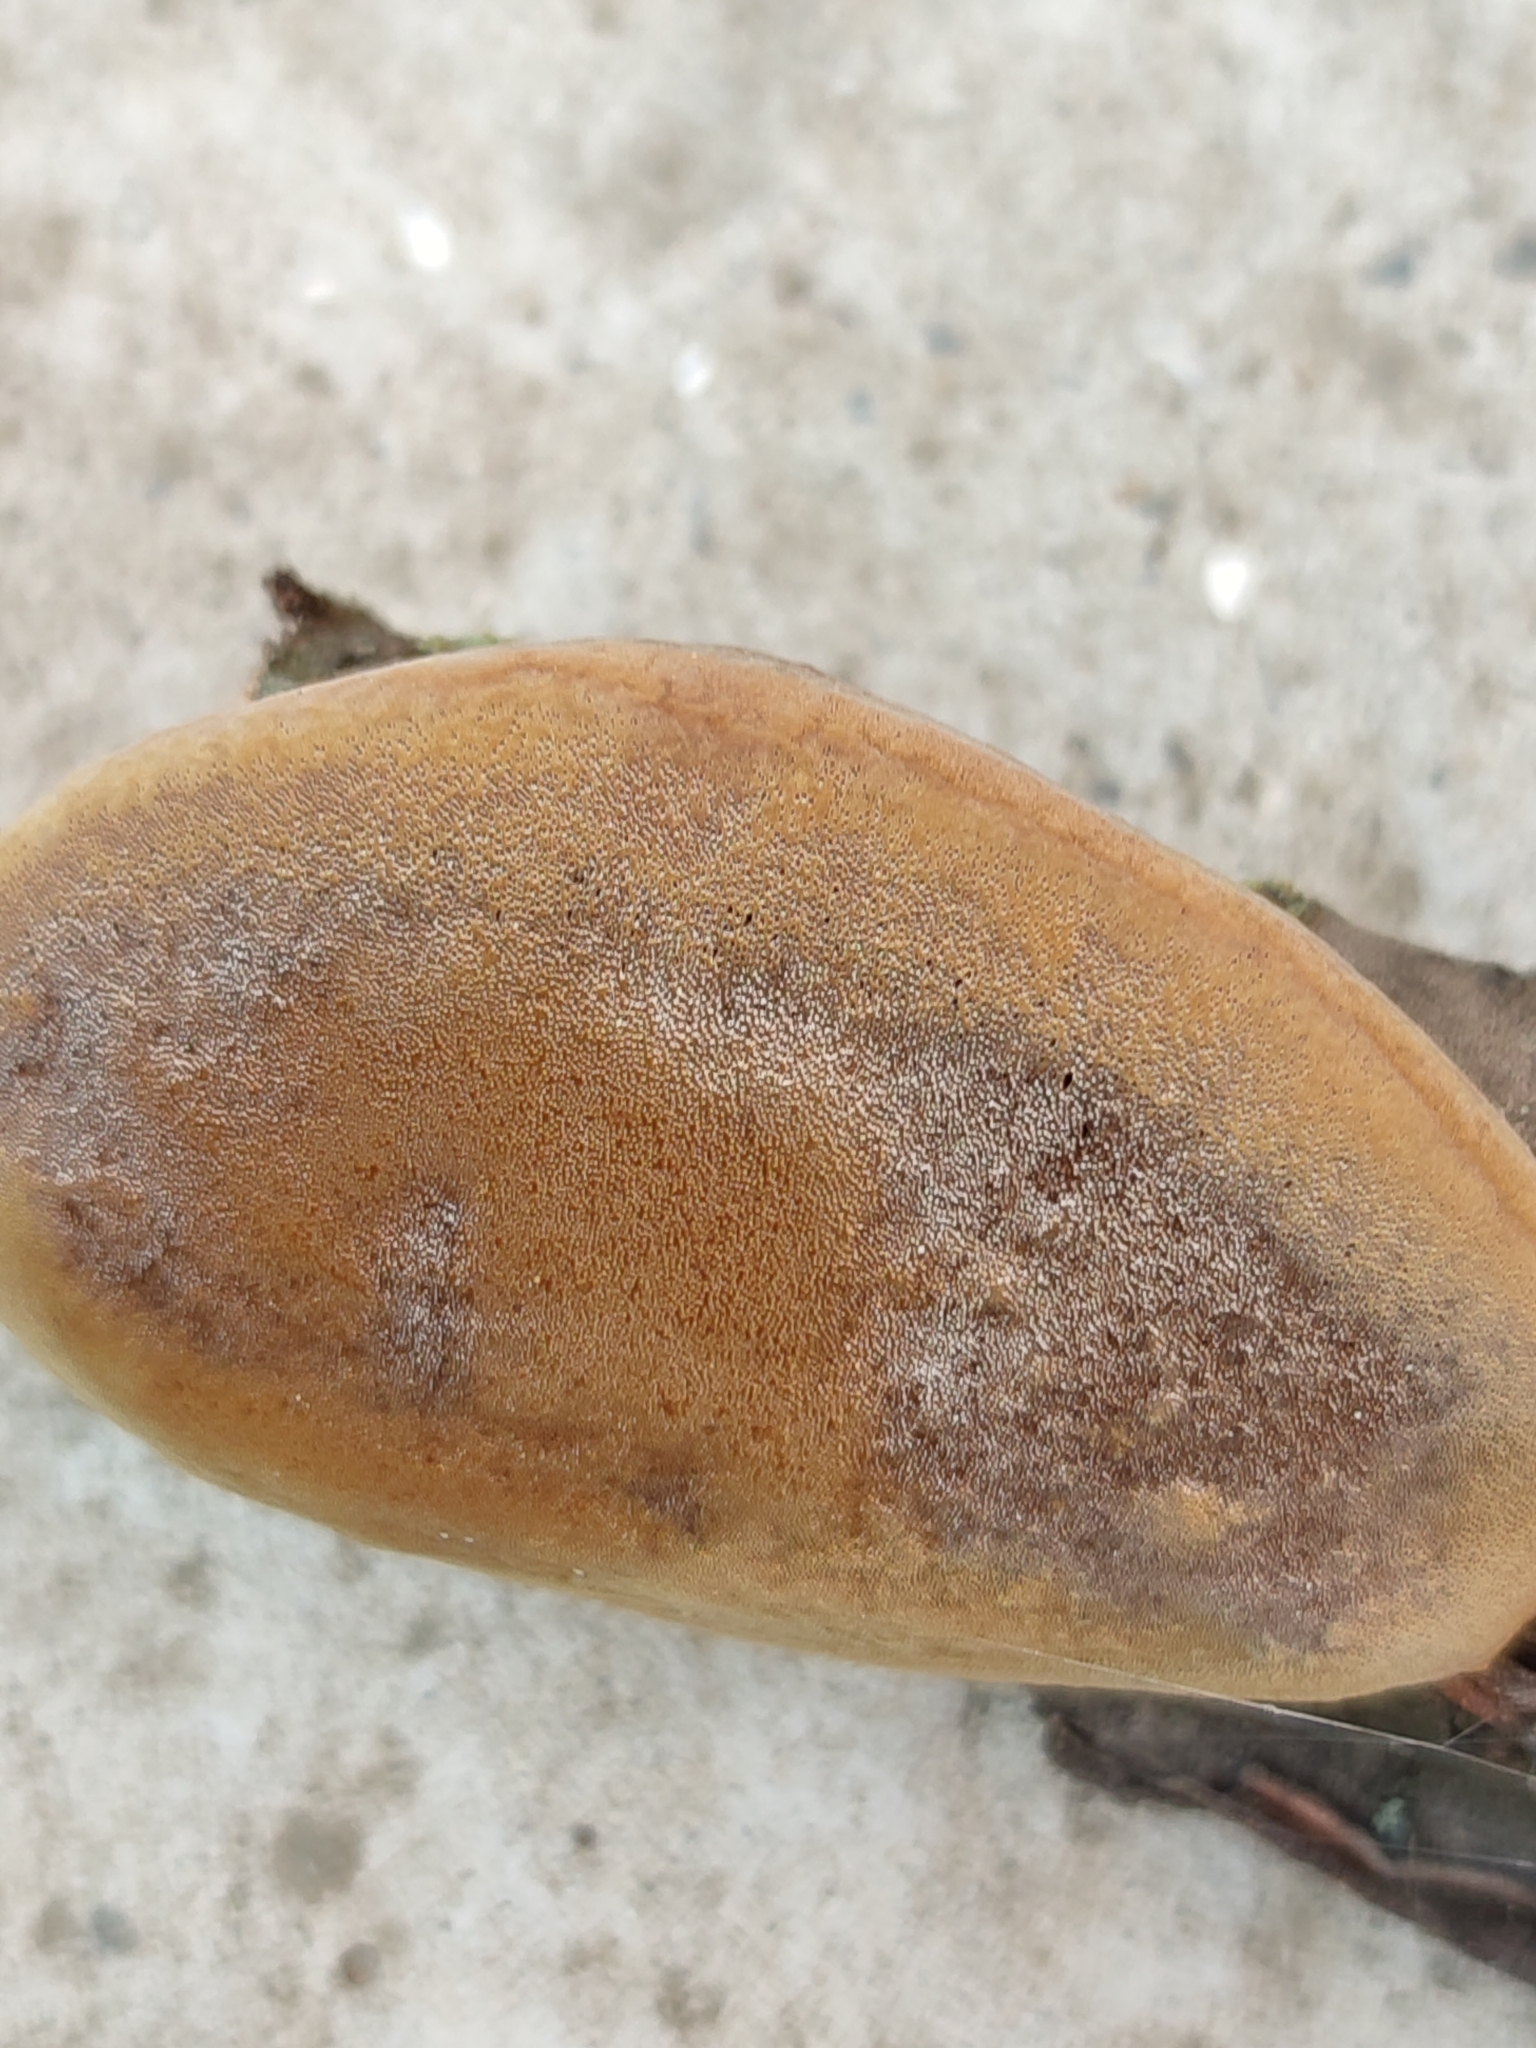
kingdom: Fungi
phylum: Basidiomycota
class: Agaricomycetes
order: Hymenochaetales
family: Hymenochaetaceae
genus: Phellinus
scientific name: Phellinus pomaceus
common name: Cushion bracket
